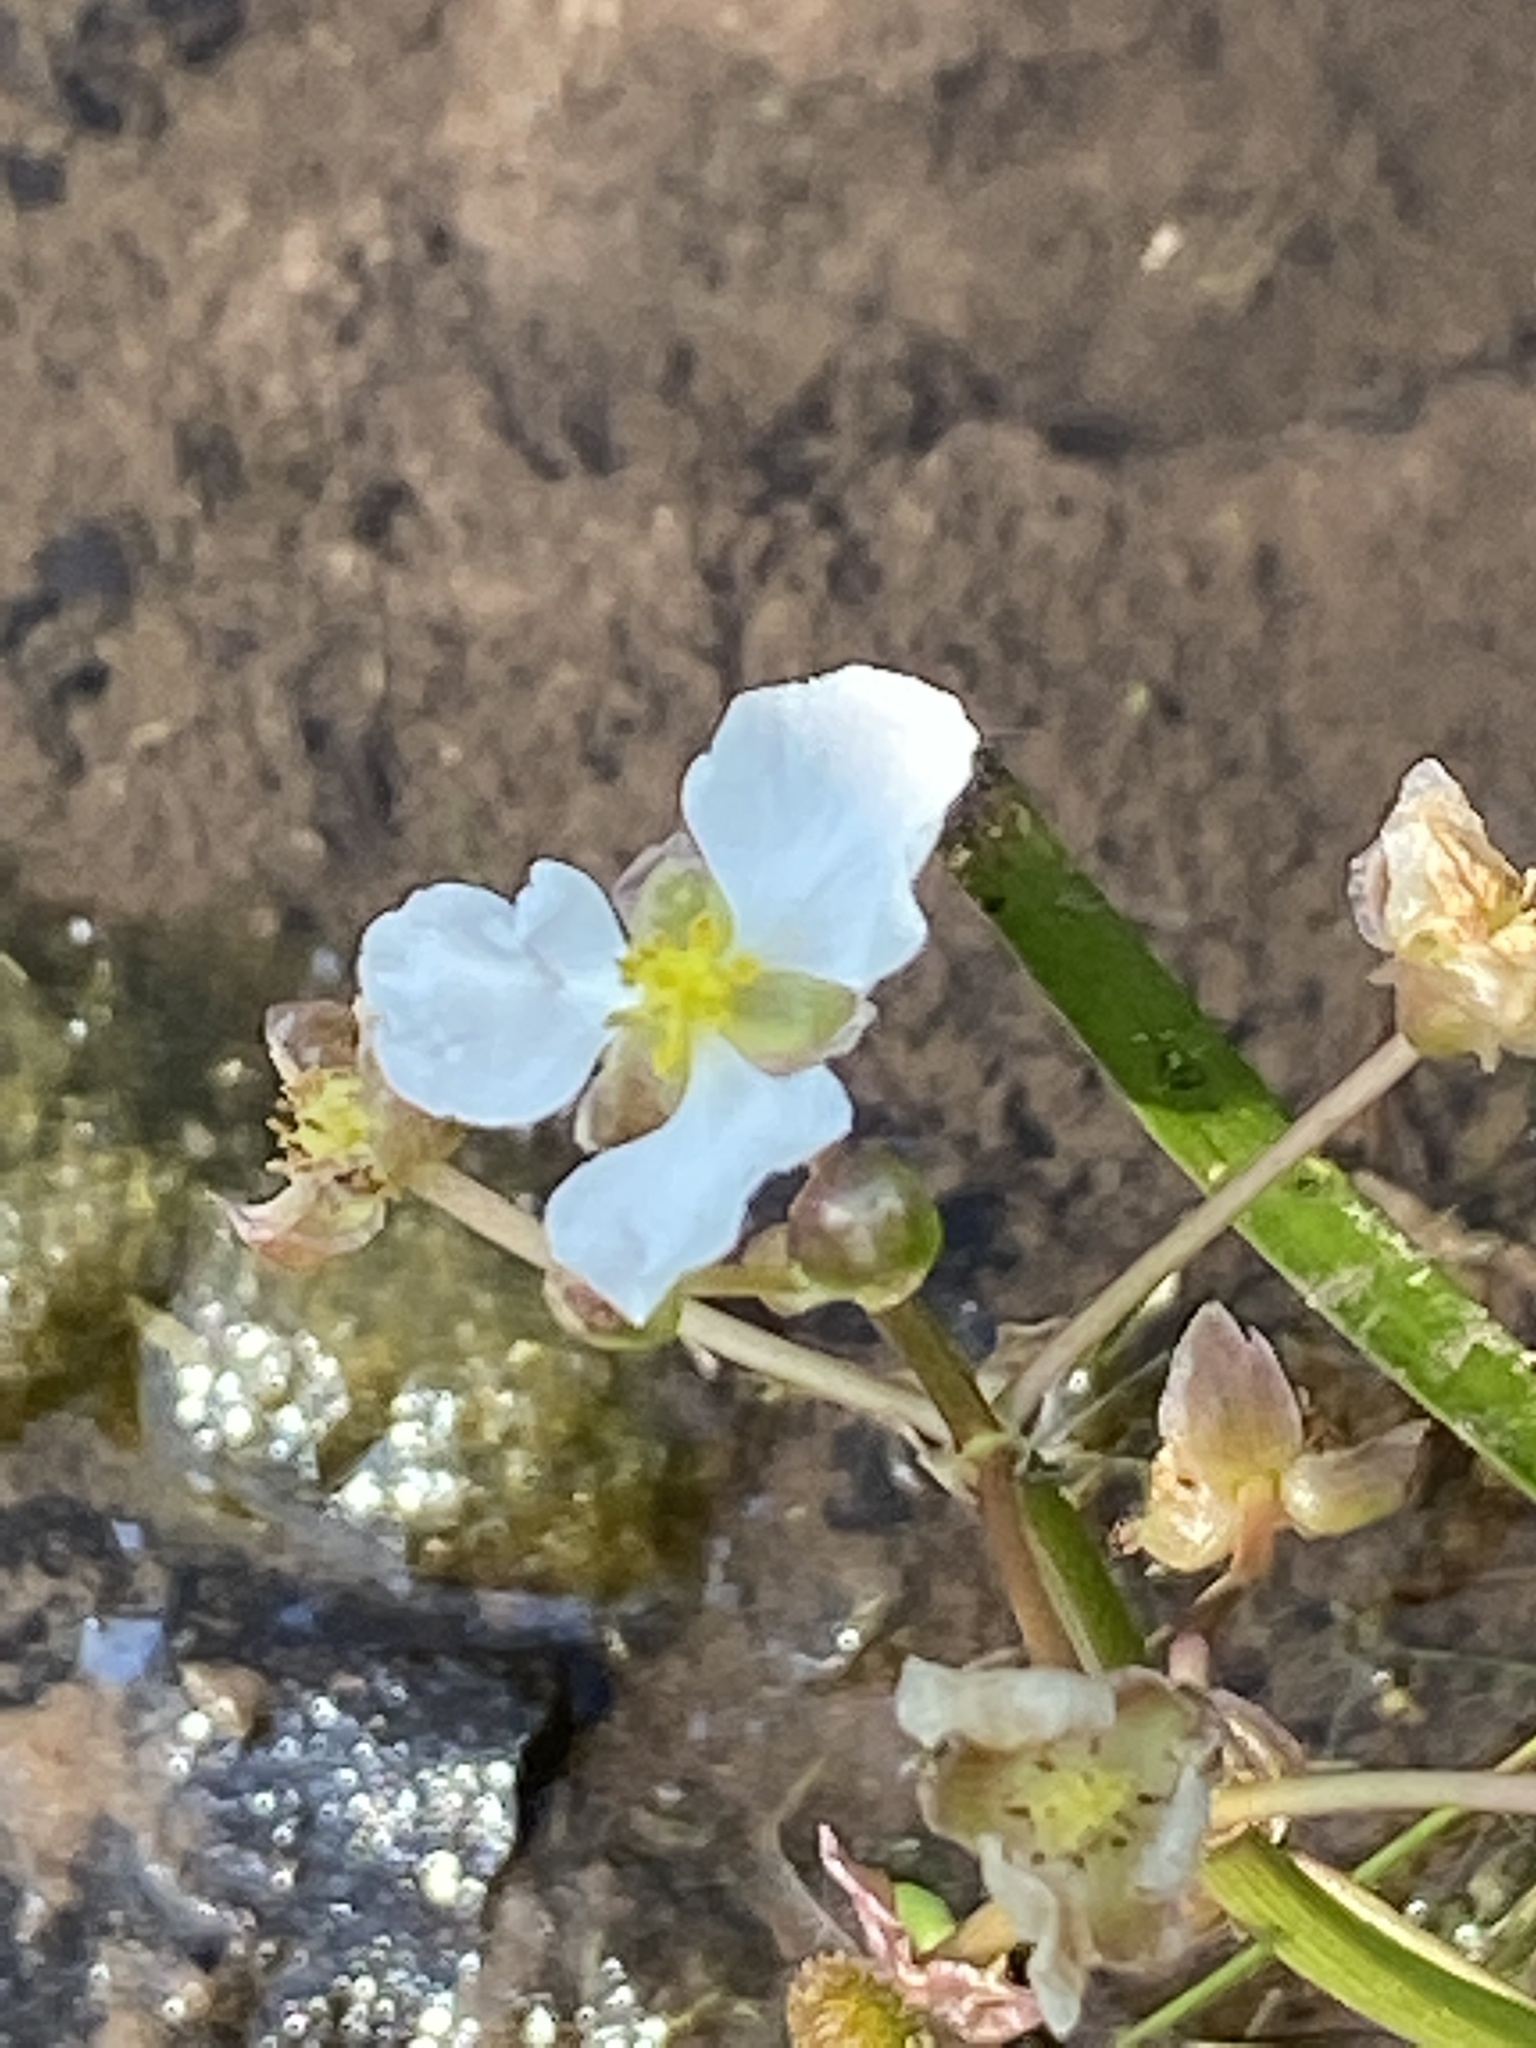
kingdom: Plantae
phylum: Tracheophyta
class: Liliopsida
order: Alismatales
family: Alismataceae
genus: Sagittaria
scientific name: Sagittaria platyphylla
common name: Broad-leaf arrowhead
